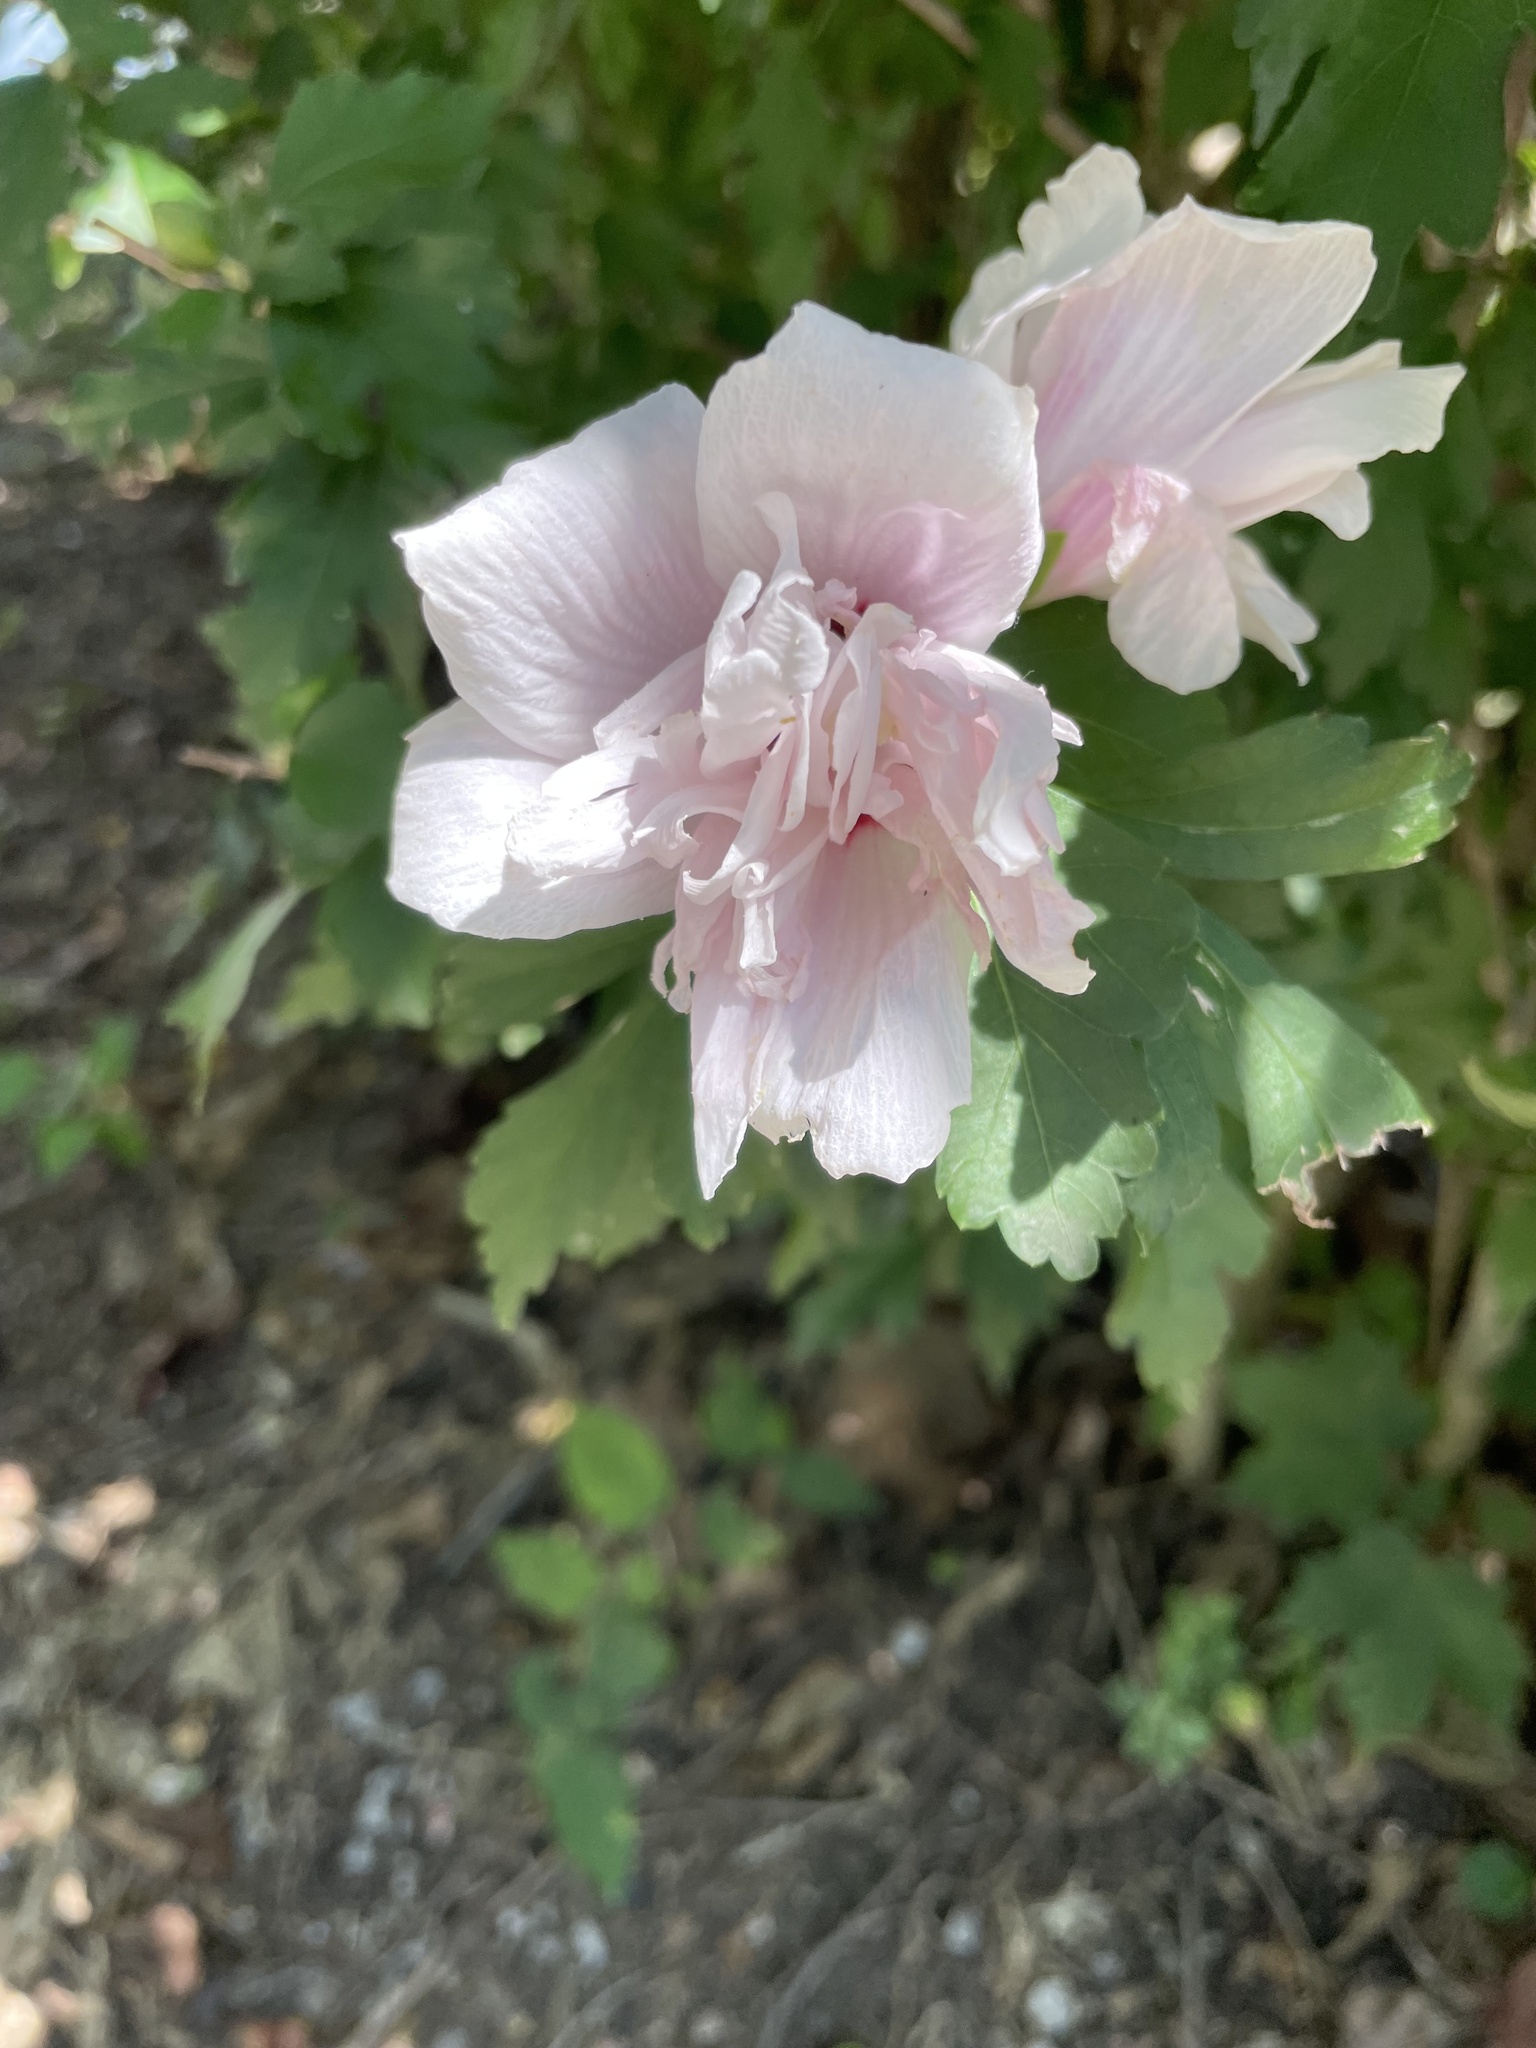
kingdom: Plantae
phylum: Tracheophyta
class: Magnoliopsida
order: Malvales
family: Malvaceae
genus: Hibiscus
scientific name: Hibiscus syriacus
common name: Syrian ketmia
